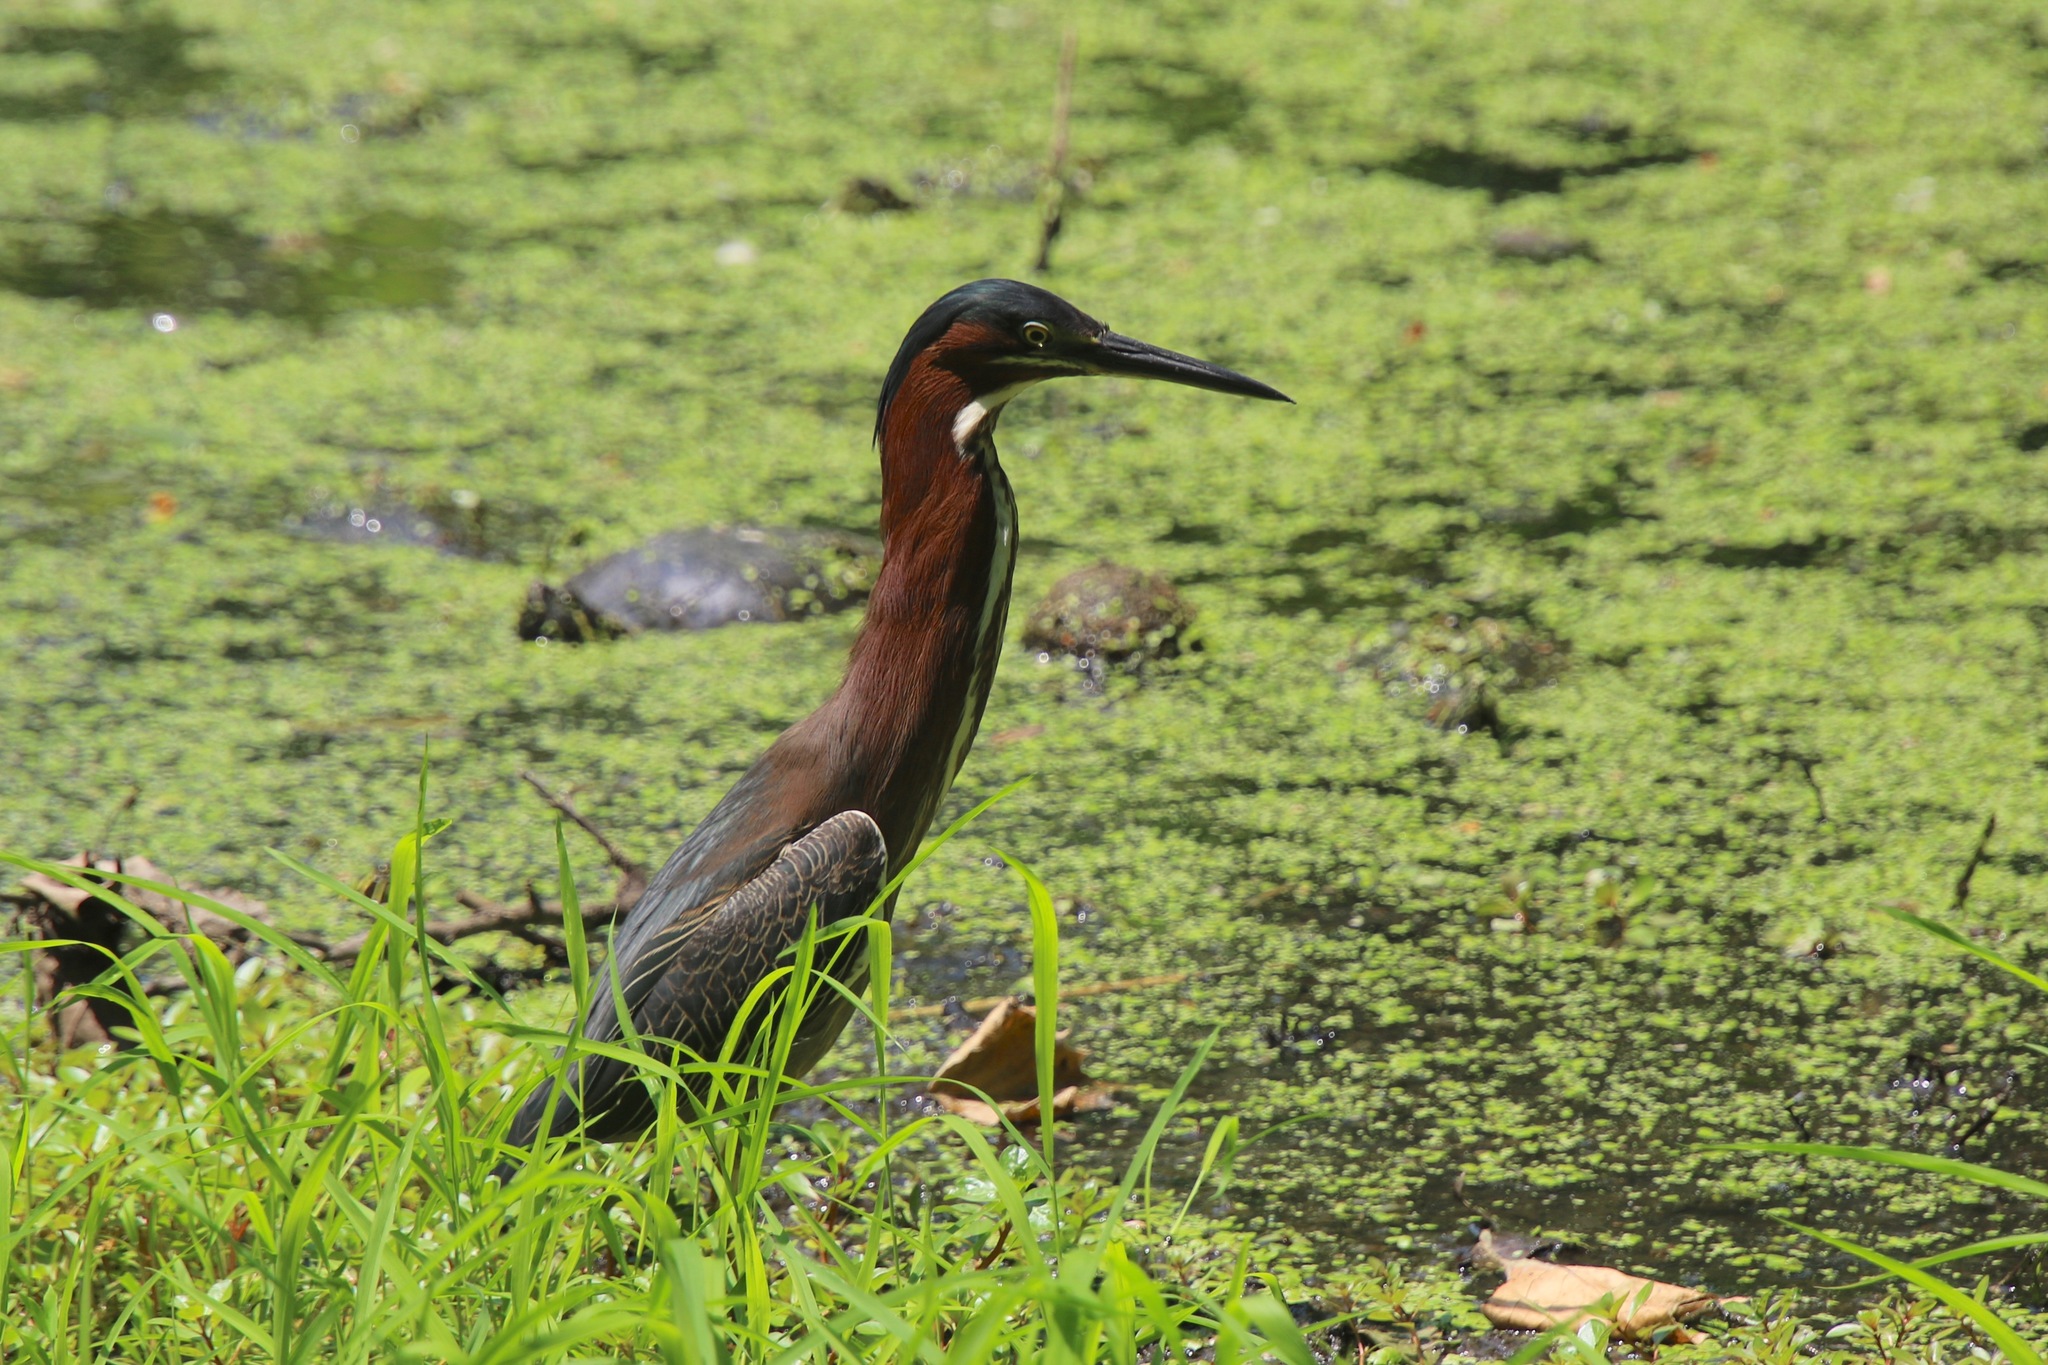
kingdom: Animalia
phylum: Chordata
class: Aves
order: Pelecaniformes
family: Ardeidae
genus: Butorides
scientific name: Butorides virescens
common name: Green heron
